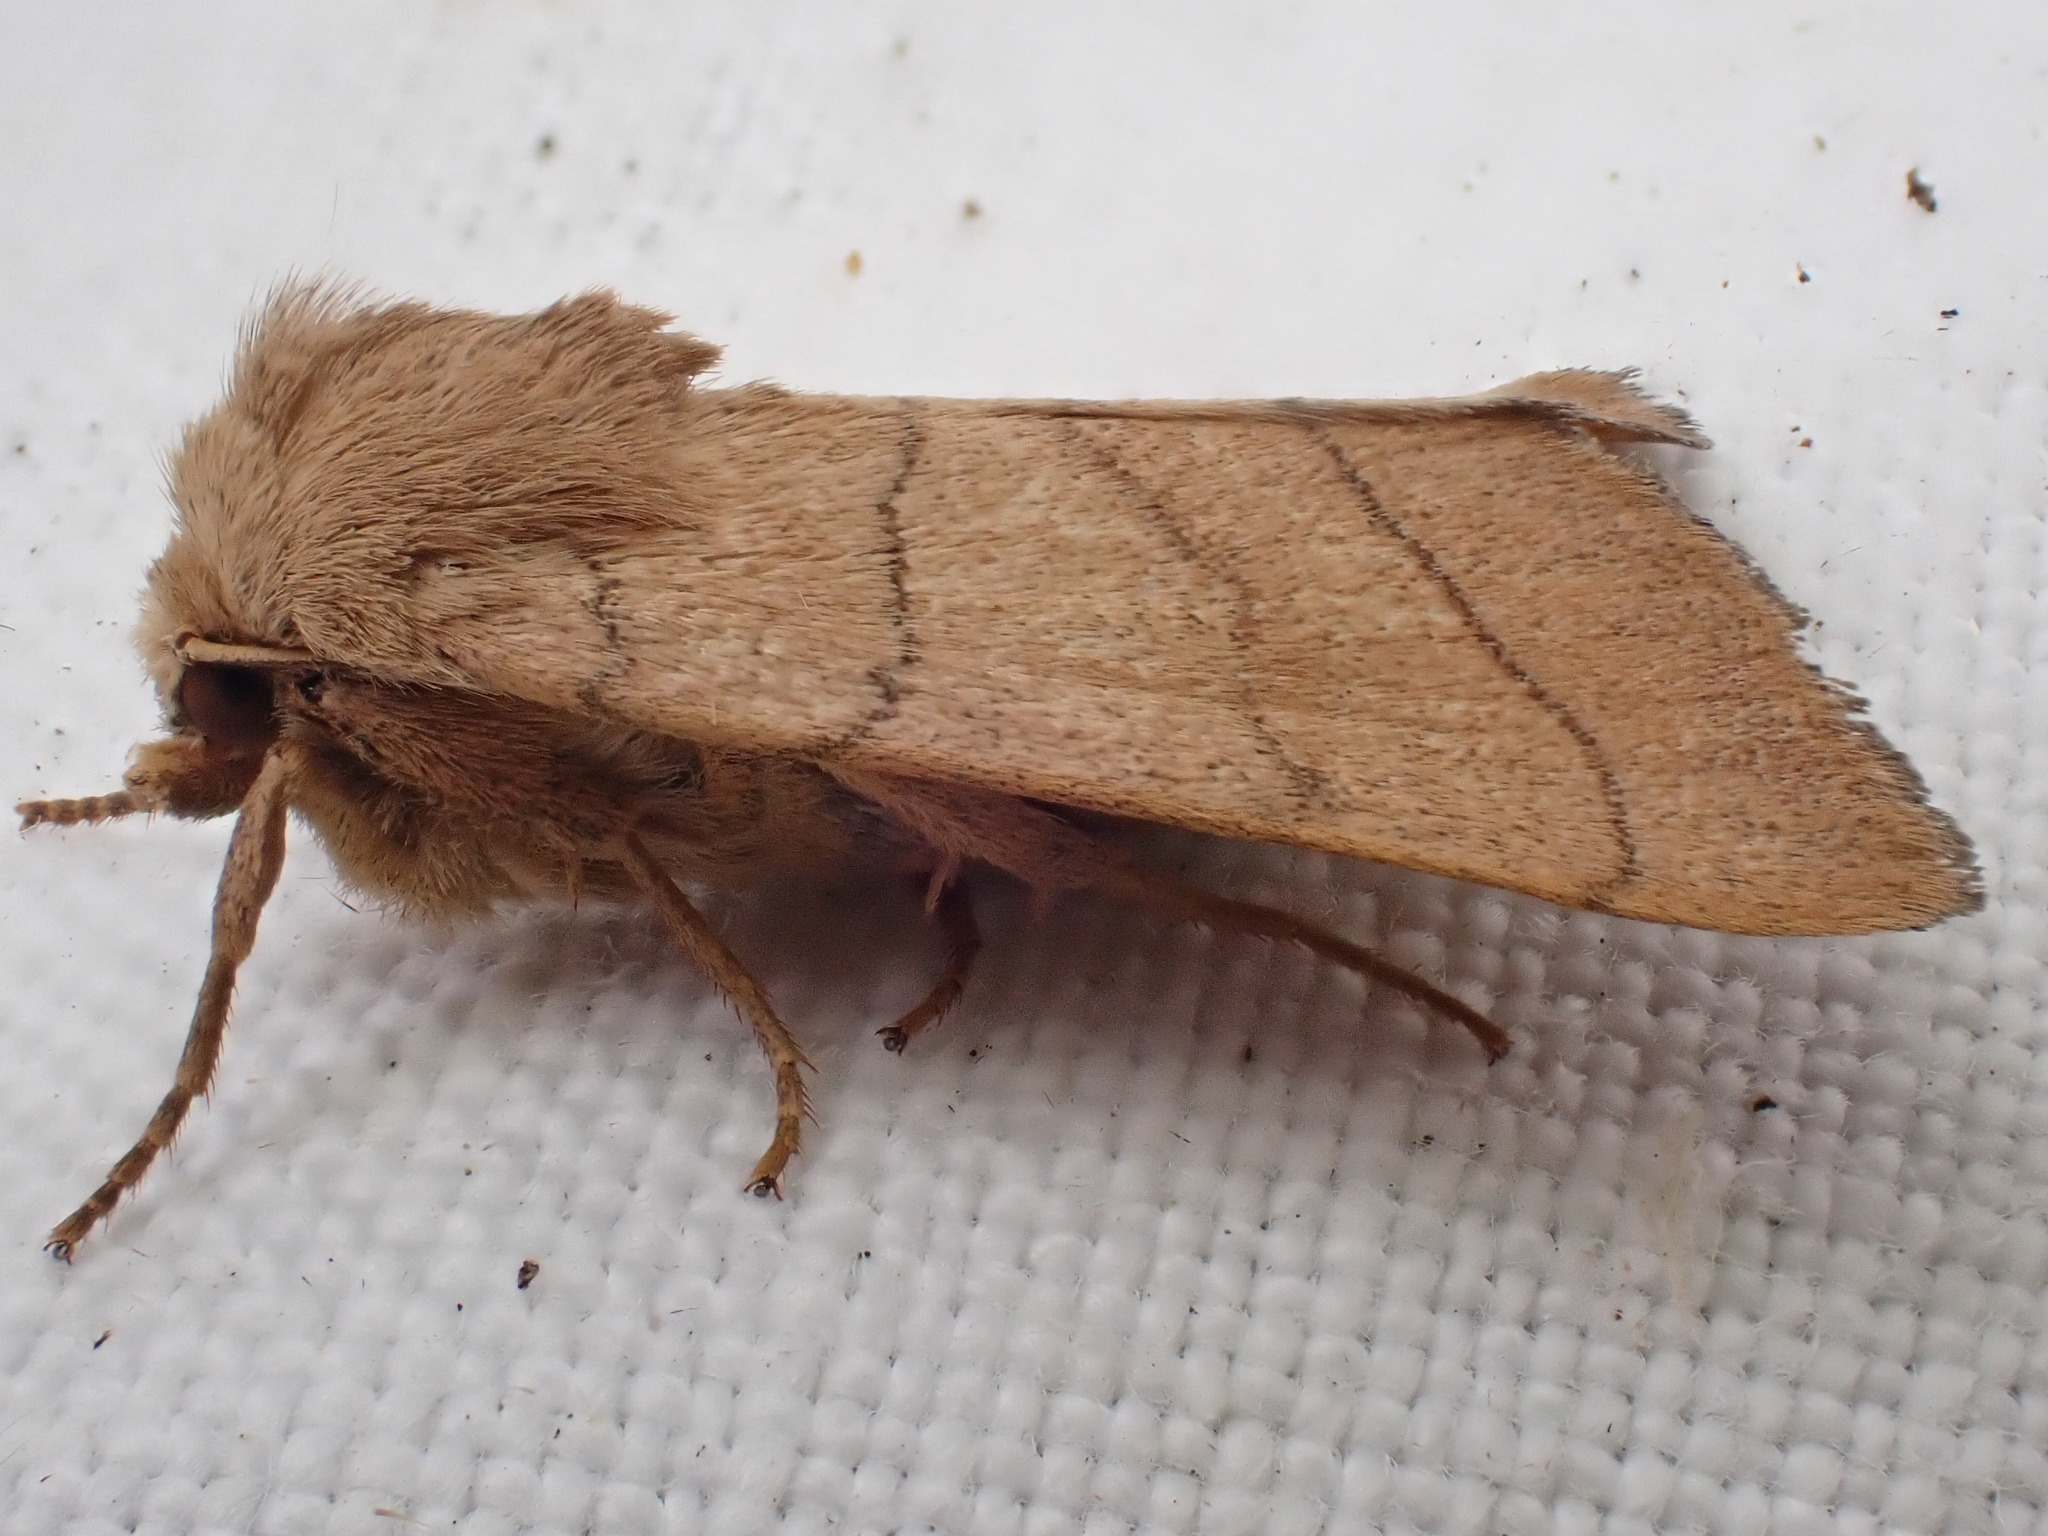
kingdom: Animalia
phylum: Arthropoda
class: Insecta
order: Lepidoptera
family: Noctuidae
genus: Charanyca
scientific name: Charanyca trigrammica
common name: Treble lines
